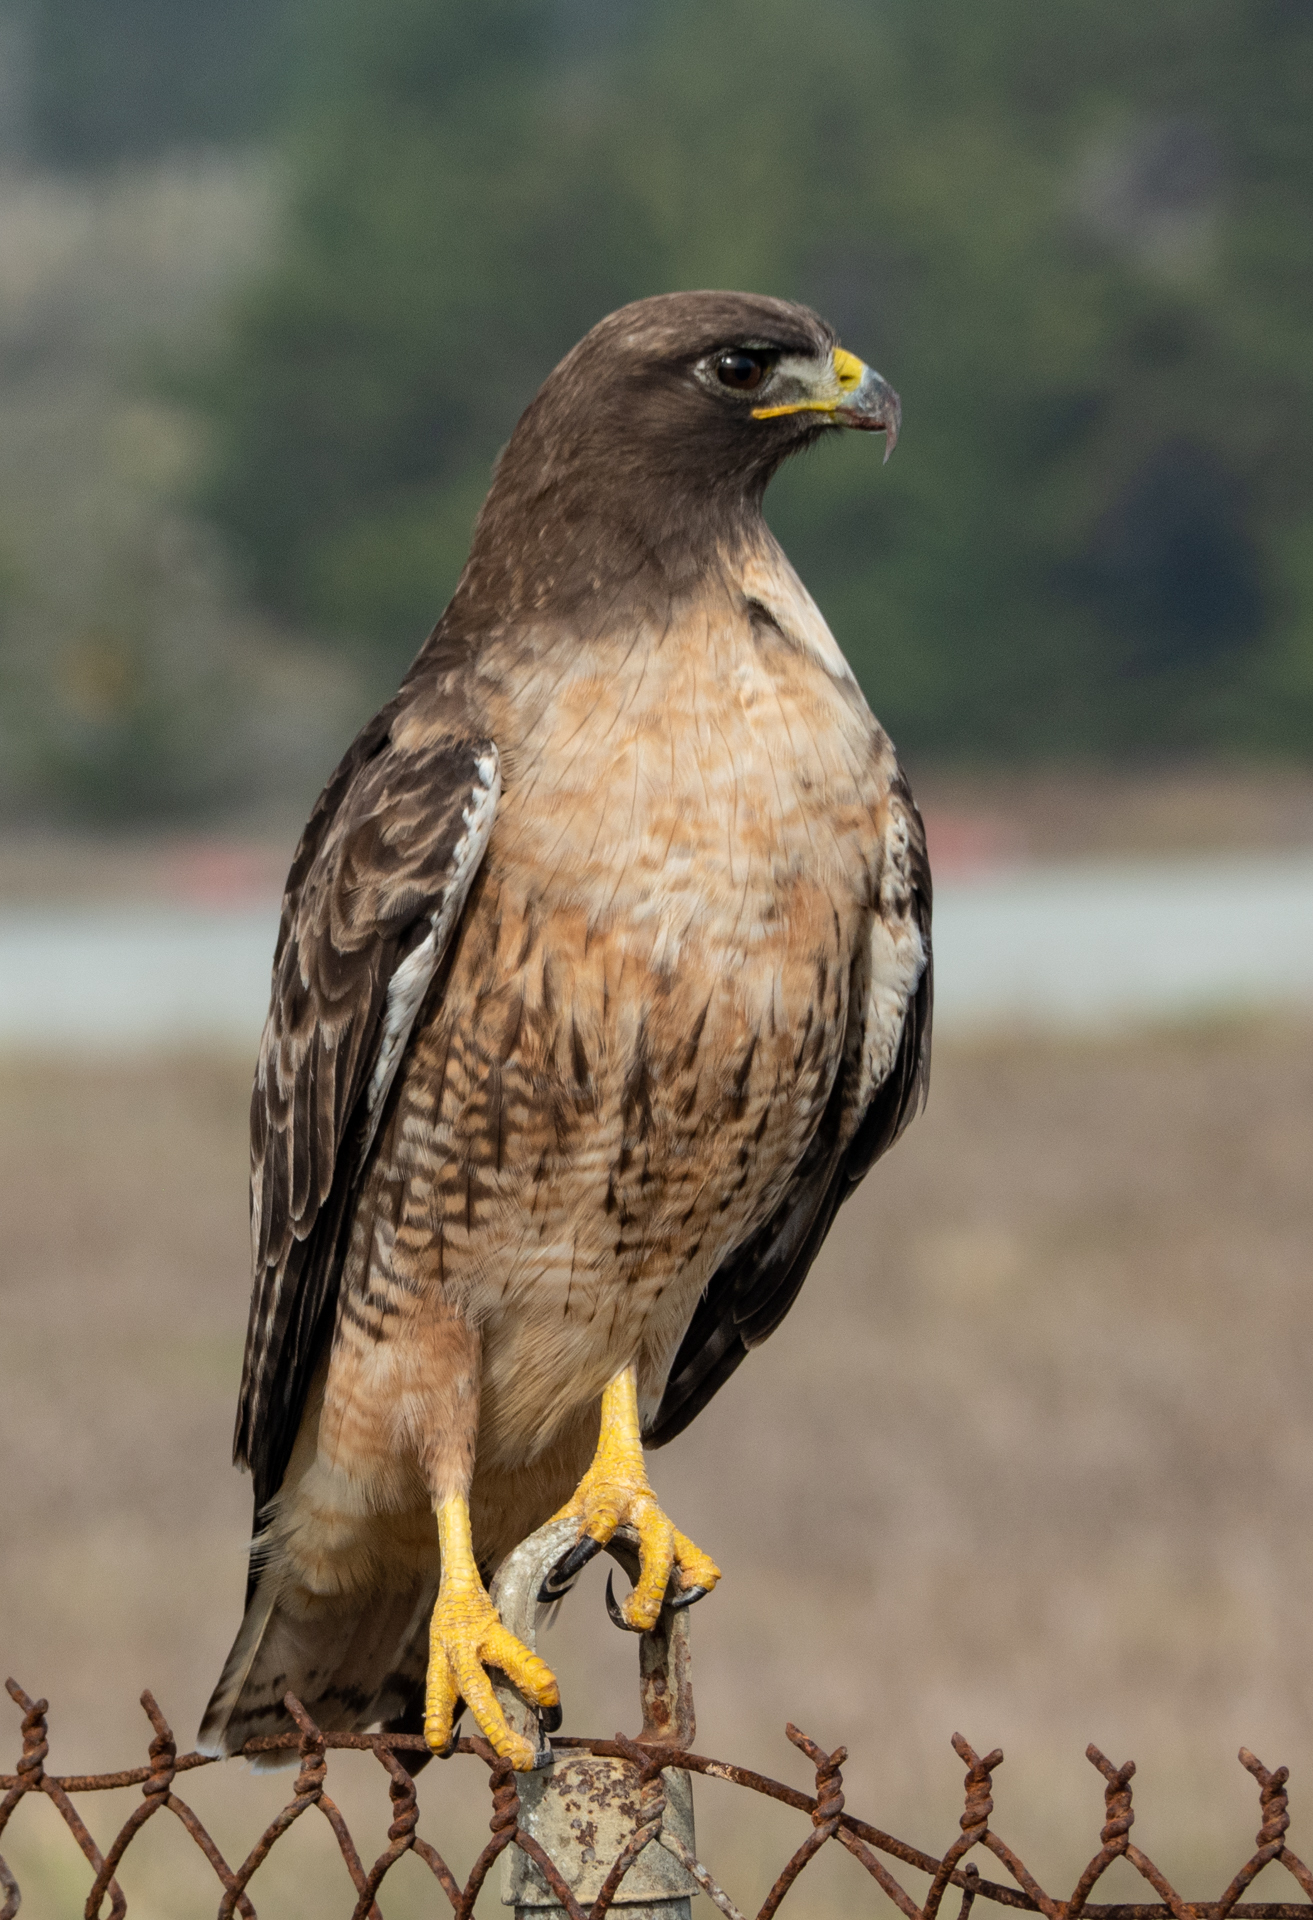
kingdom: Animalia
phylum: Chordata
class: Aves
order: Accipitriformes
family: Accipitridae
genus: Buteo
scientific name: Buteo jamaicensis
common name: Red-tailed hawk
